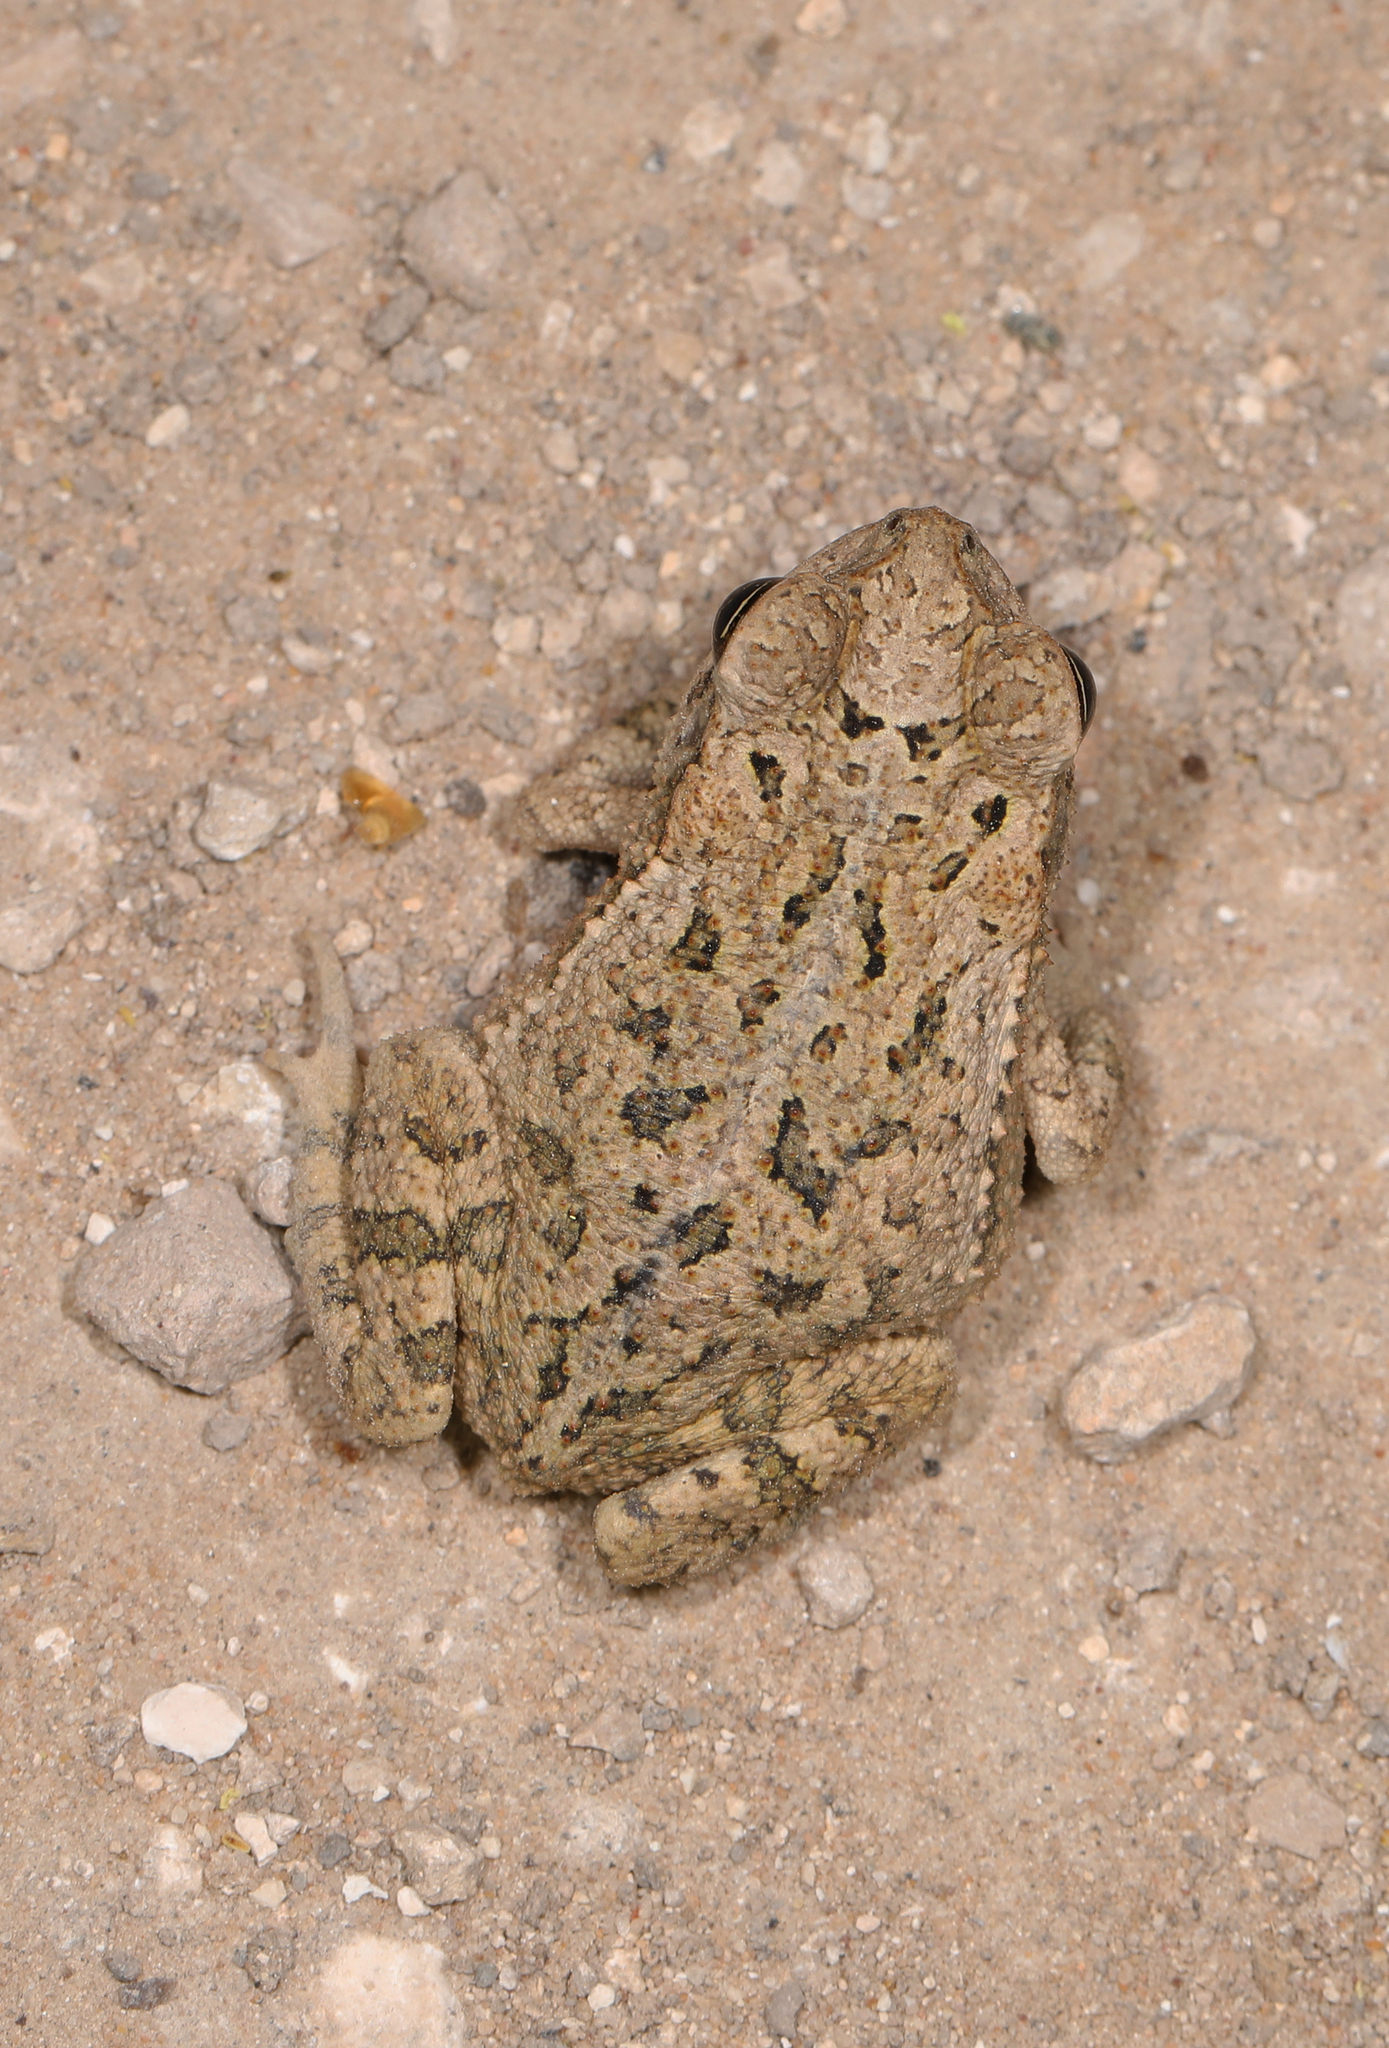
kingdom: Animalia
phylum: Chordata
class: Amphibia
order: Anura
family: Bufonidae
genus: Anaxyrus
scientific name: Anaxyrus speciosus
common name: Texas toad
